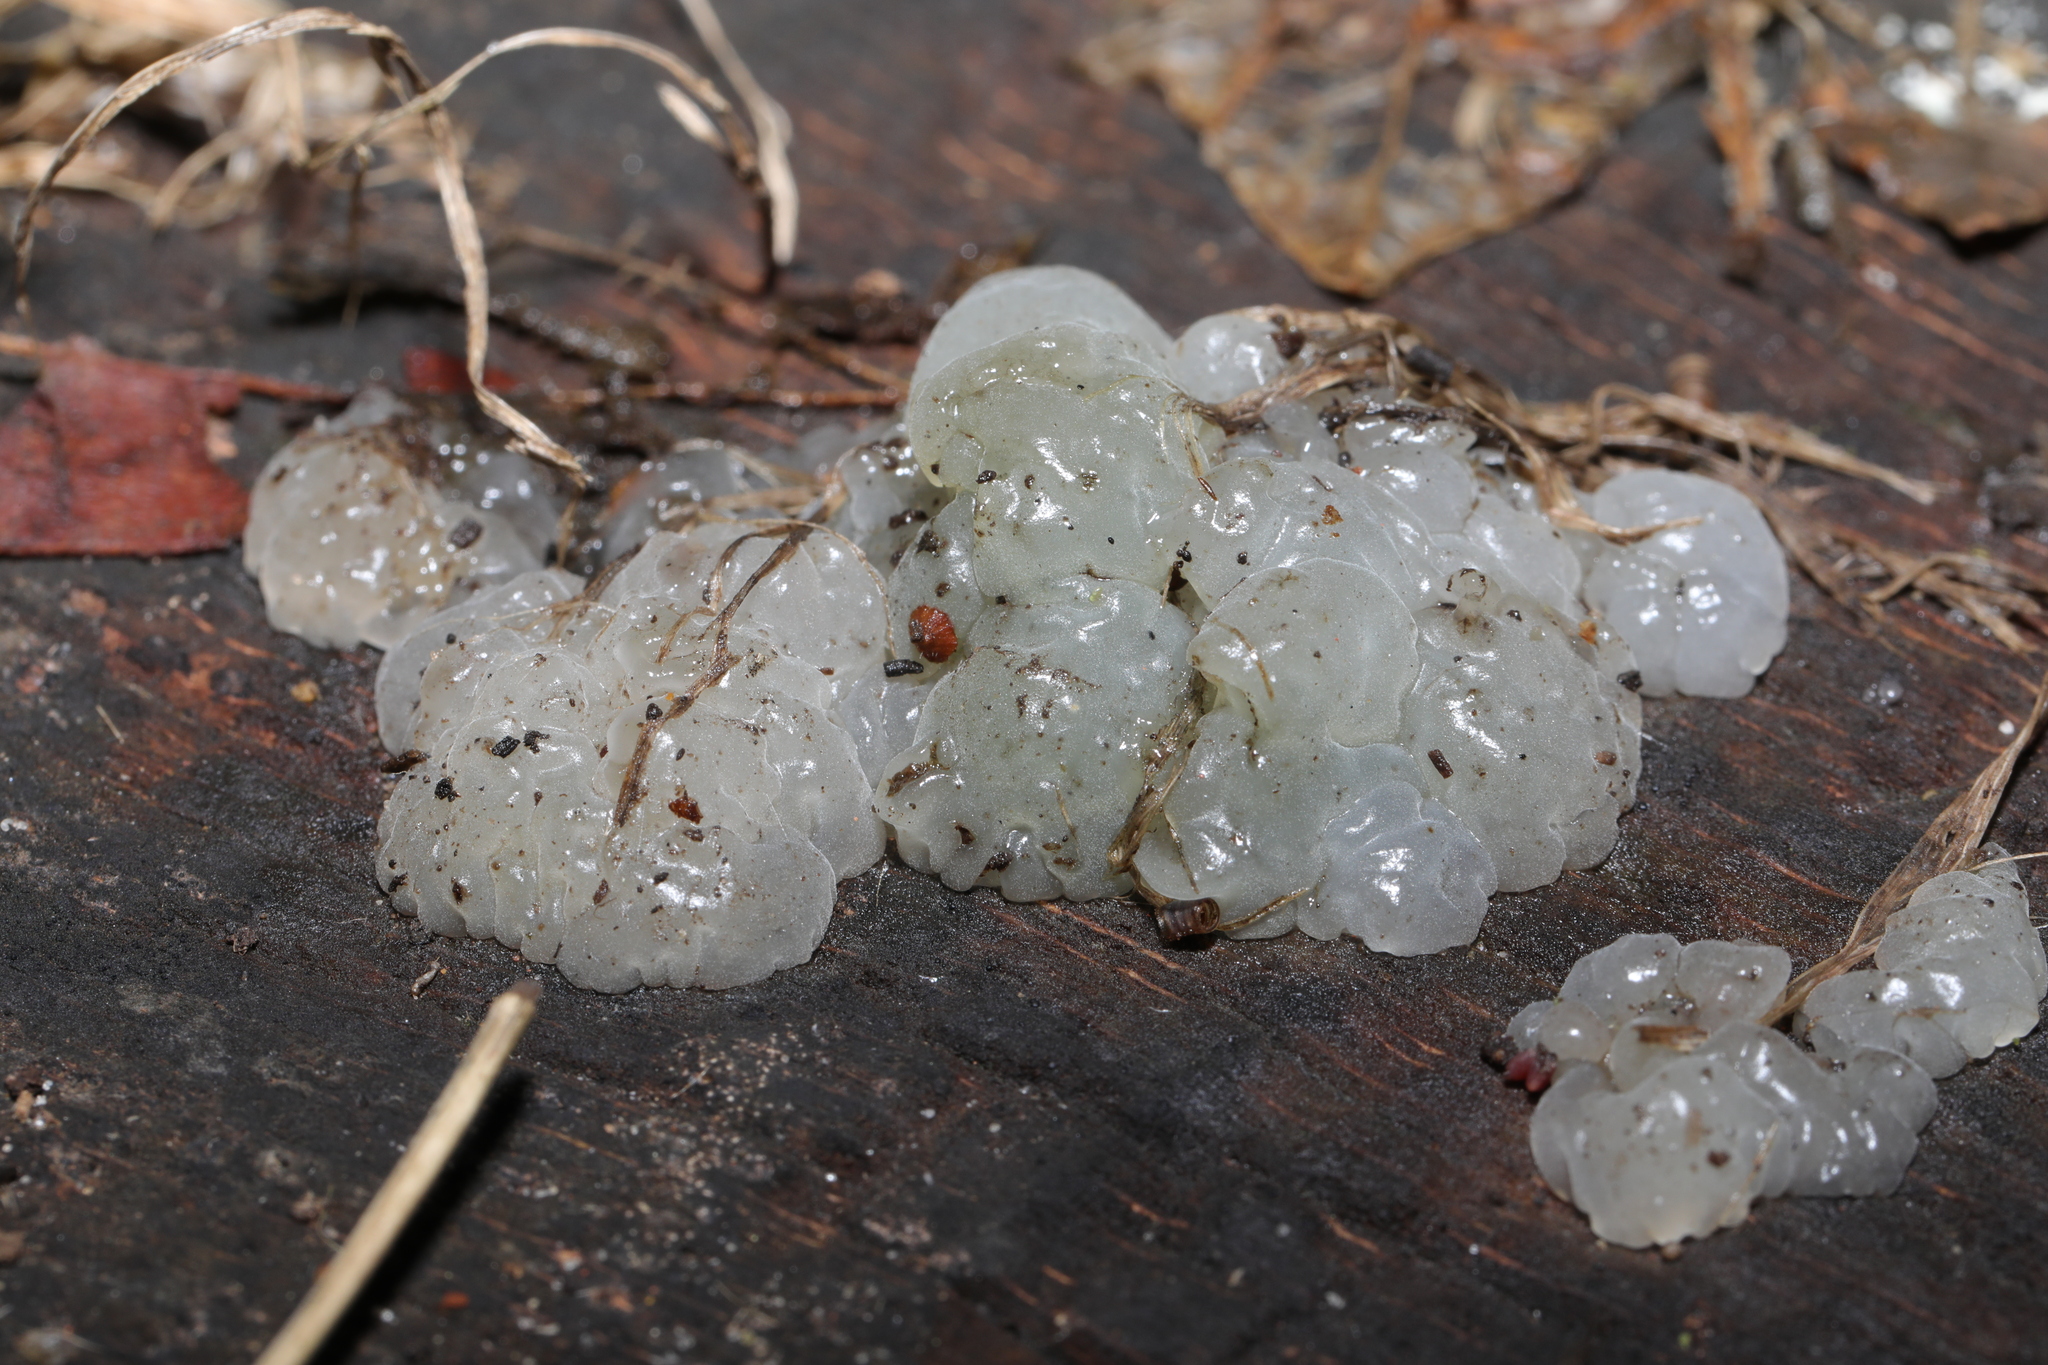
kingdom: Fungi
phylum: Basidiomycota
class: Agaricomycetes
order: Auriculariales
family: Hyaloriaceae
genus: Myxarium
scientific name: Myxarium nucleatum
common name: Crystal brain fungus
